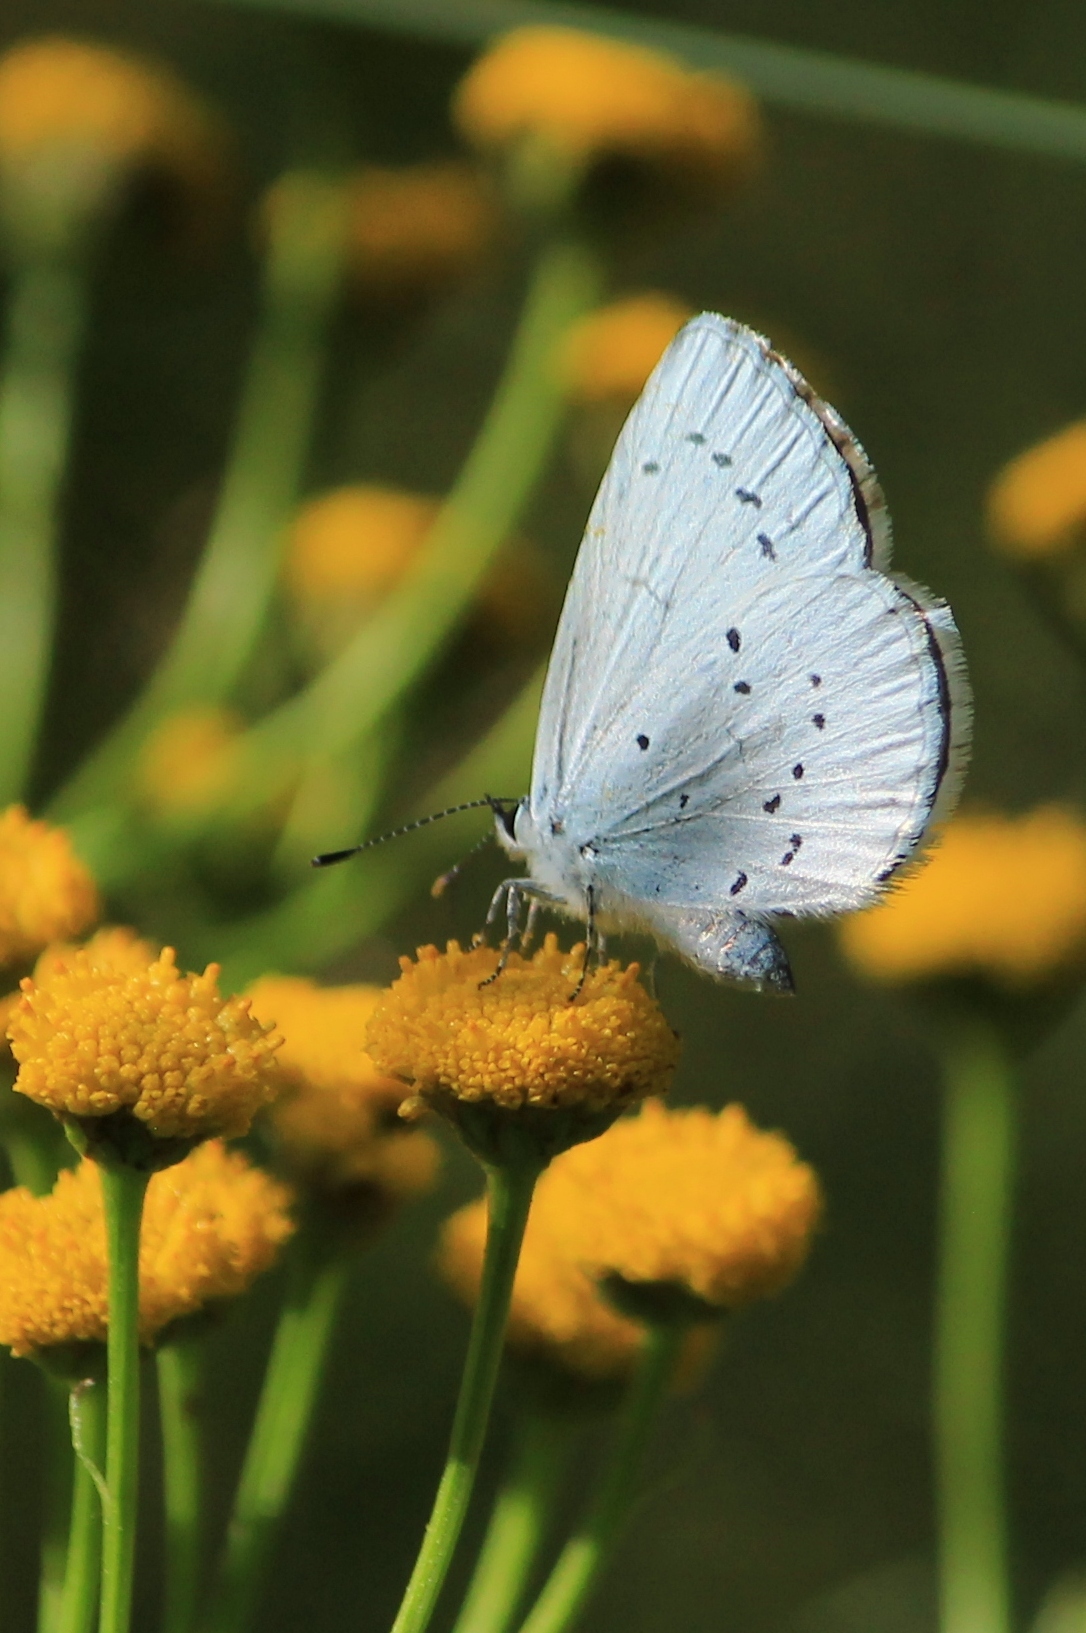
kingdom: Animalia
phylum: Arthropoda
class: Insecta
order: Lepidoptera
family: Lycaenidae
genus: Celastrina
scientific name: Celastrina argiolus
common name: Holly blue
